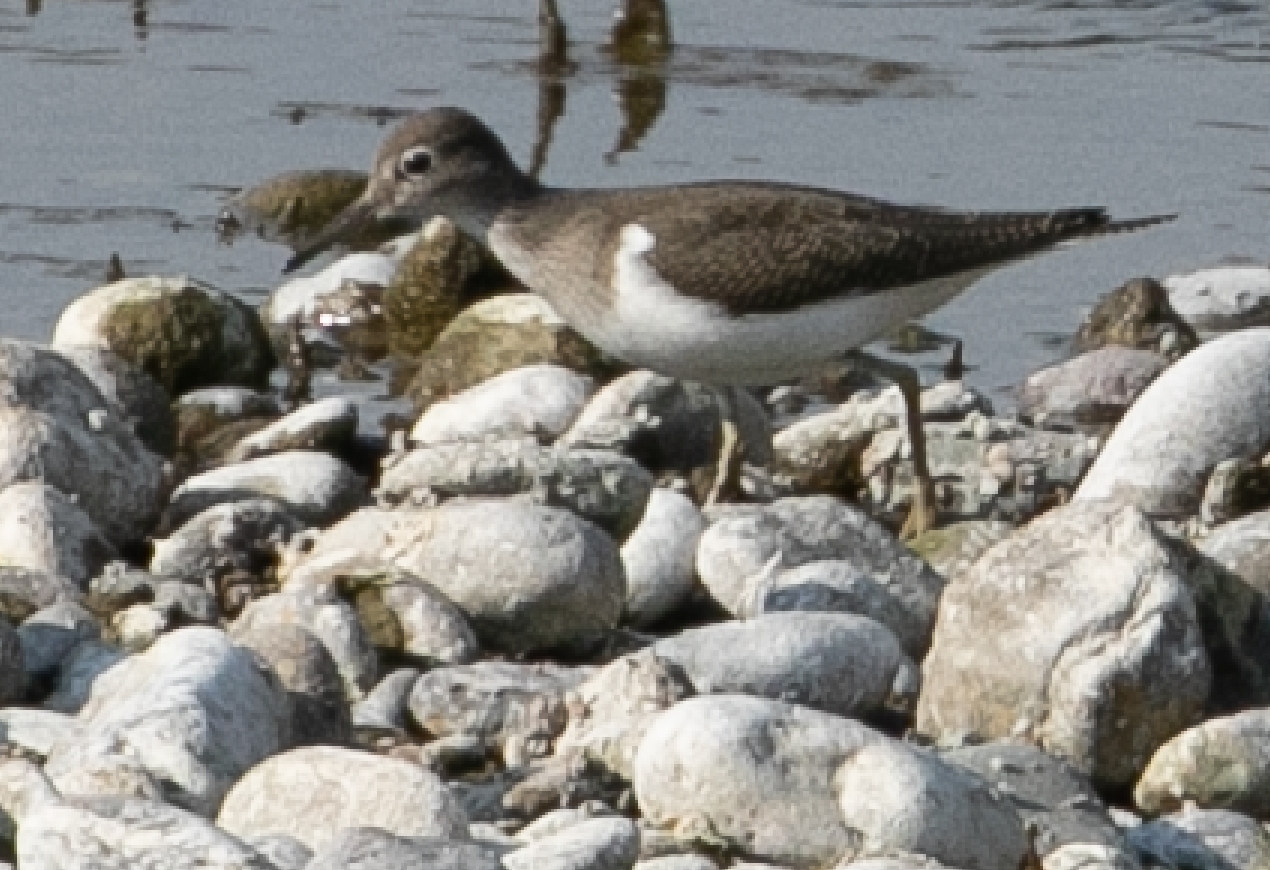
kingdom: Animalia
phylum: Chordata
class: Aves
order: Charadriiformes
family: Scolopacidae
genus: Actitis
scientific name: Actitis hypoleucos
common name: Common sandpiper
